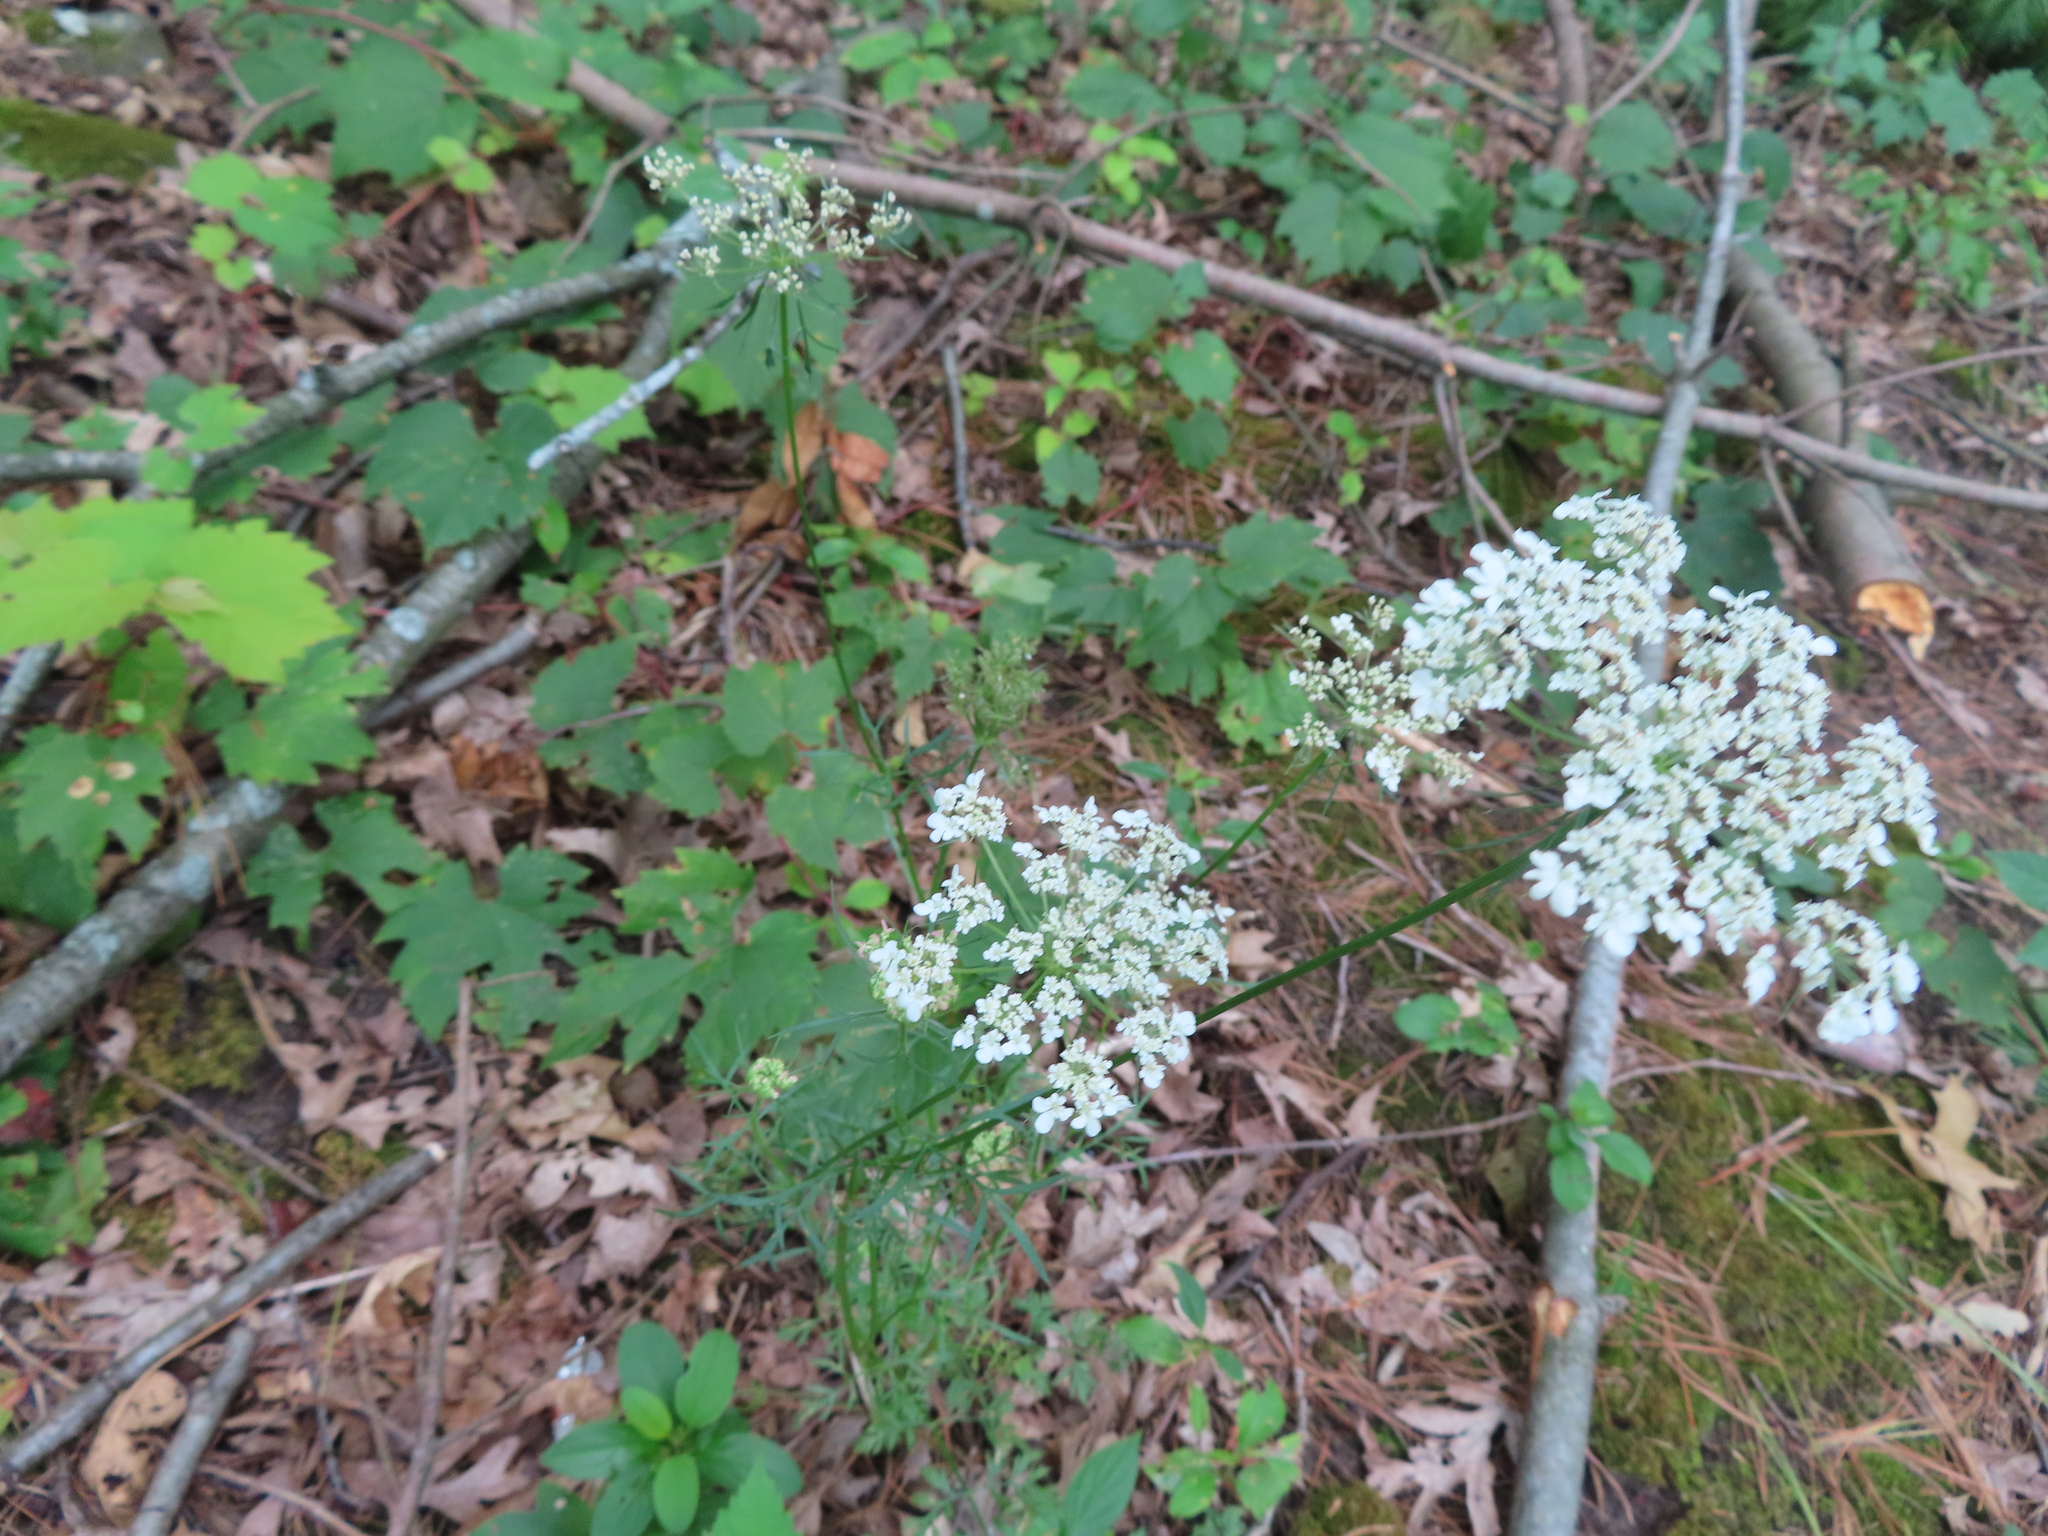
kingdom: Plantae
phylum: Tracheophyta
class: Magnoliopsida
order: Apiales
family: Apiaceae
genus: Daucus
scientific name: Daucus carota
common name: Wild carrot
